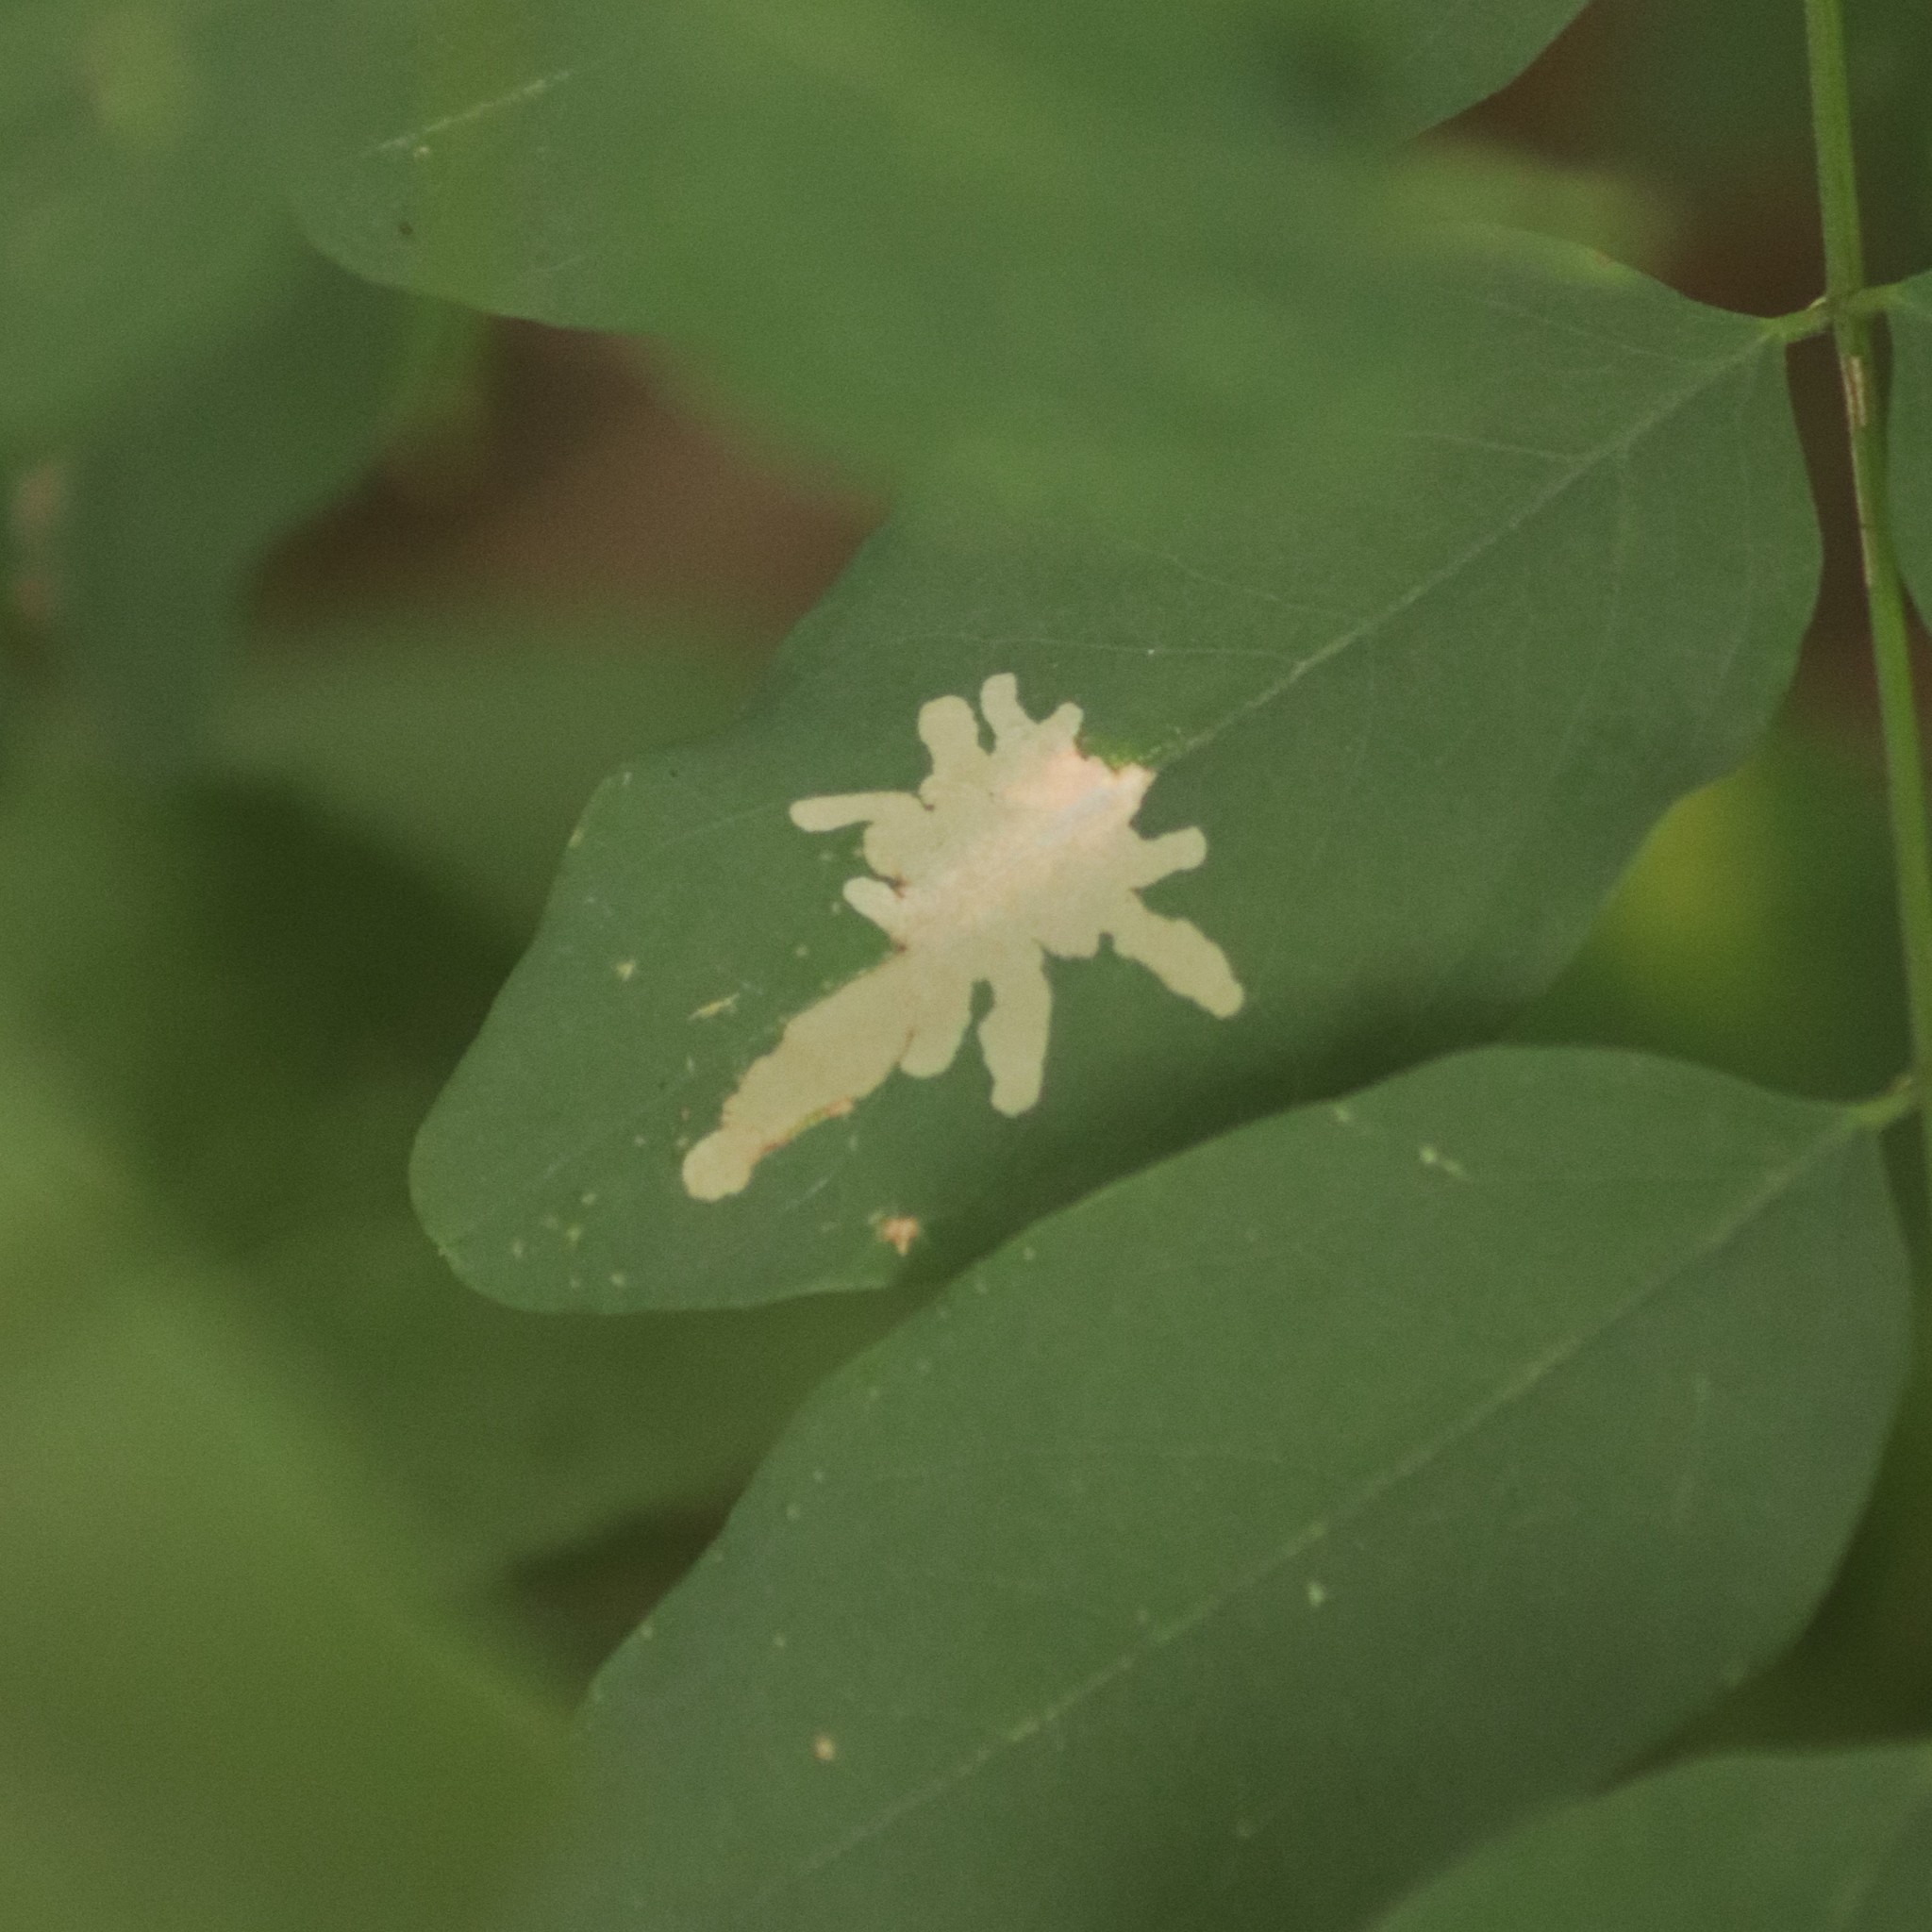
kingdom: Animalia
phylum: Arthropoda
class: Insecta
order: Lepidoptera
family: Gracillariidae
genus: Parectopa
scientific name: Parectopa robiniella
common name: Locust digitate leafminer
